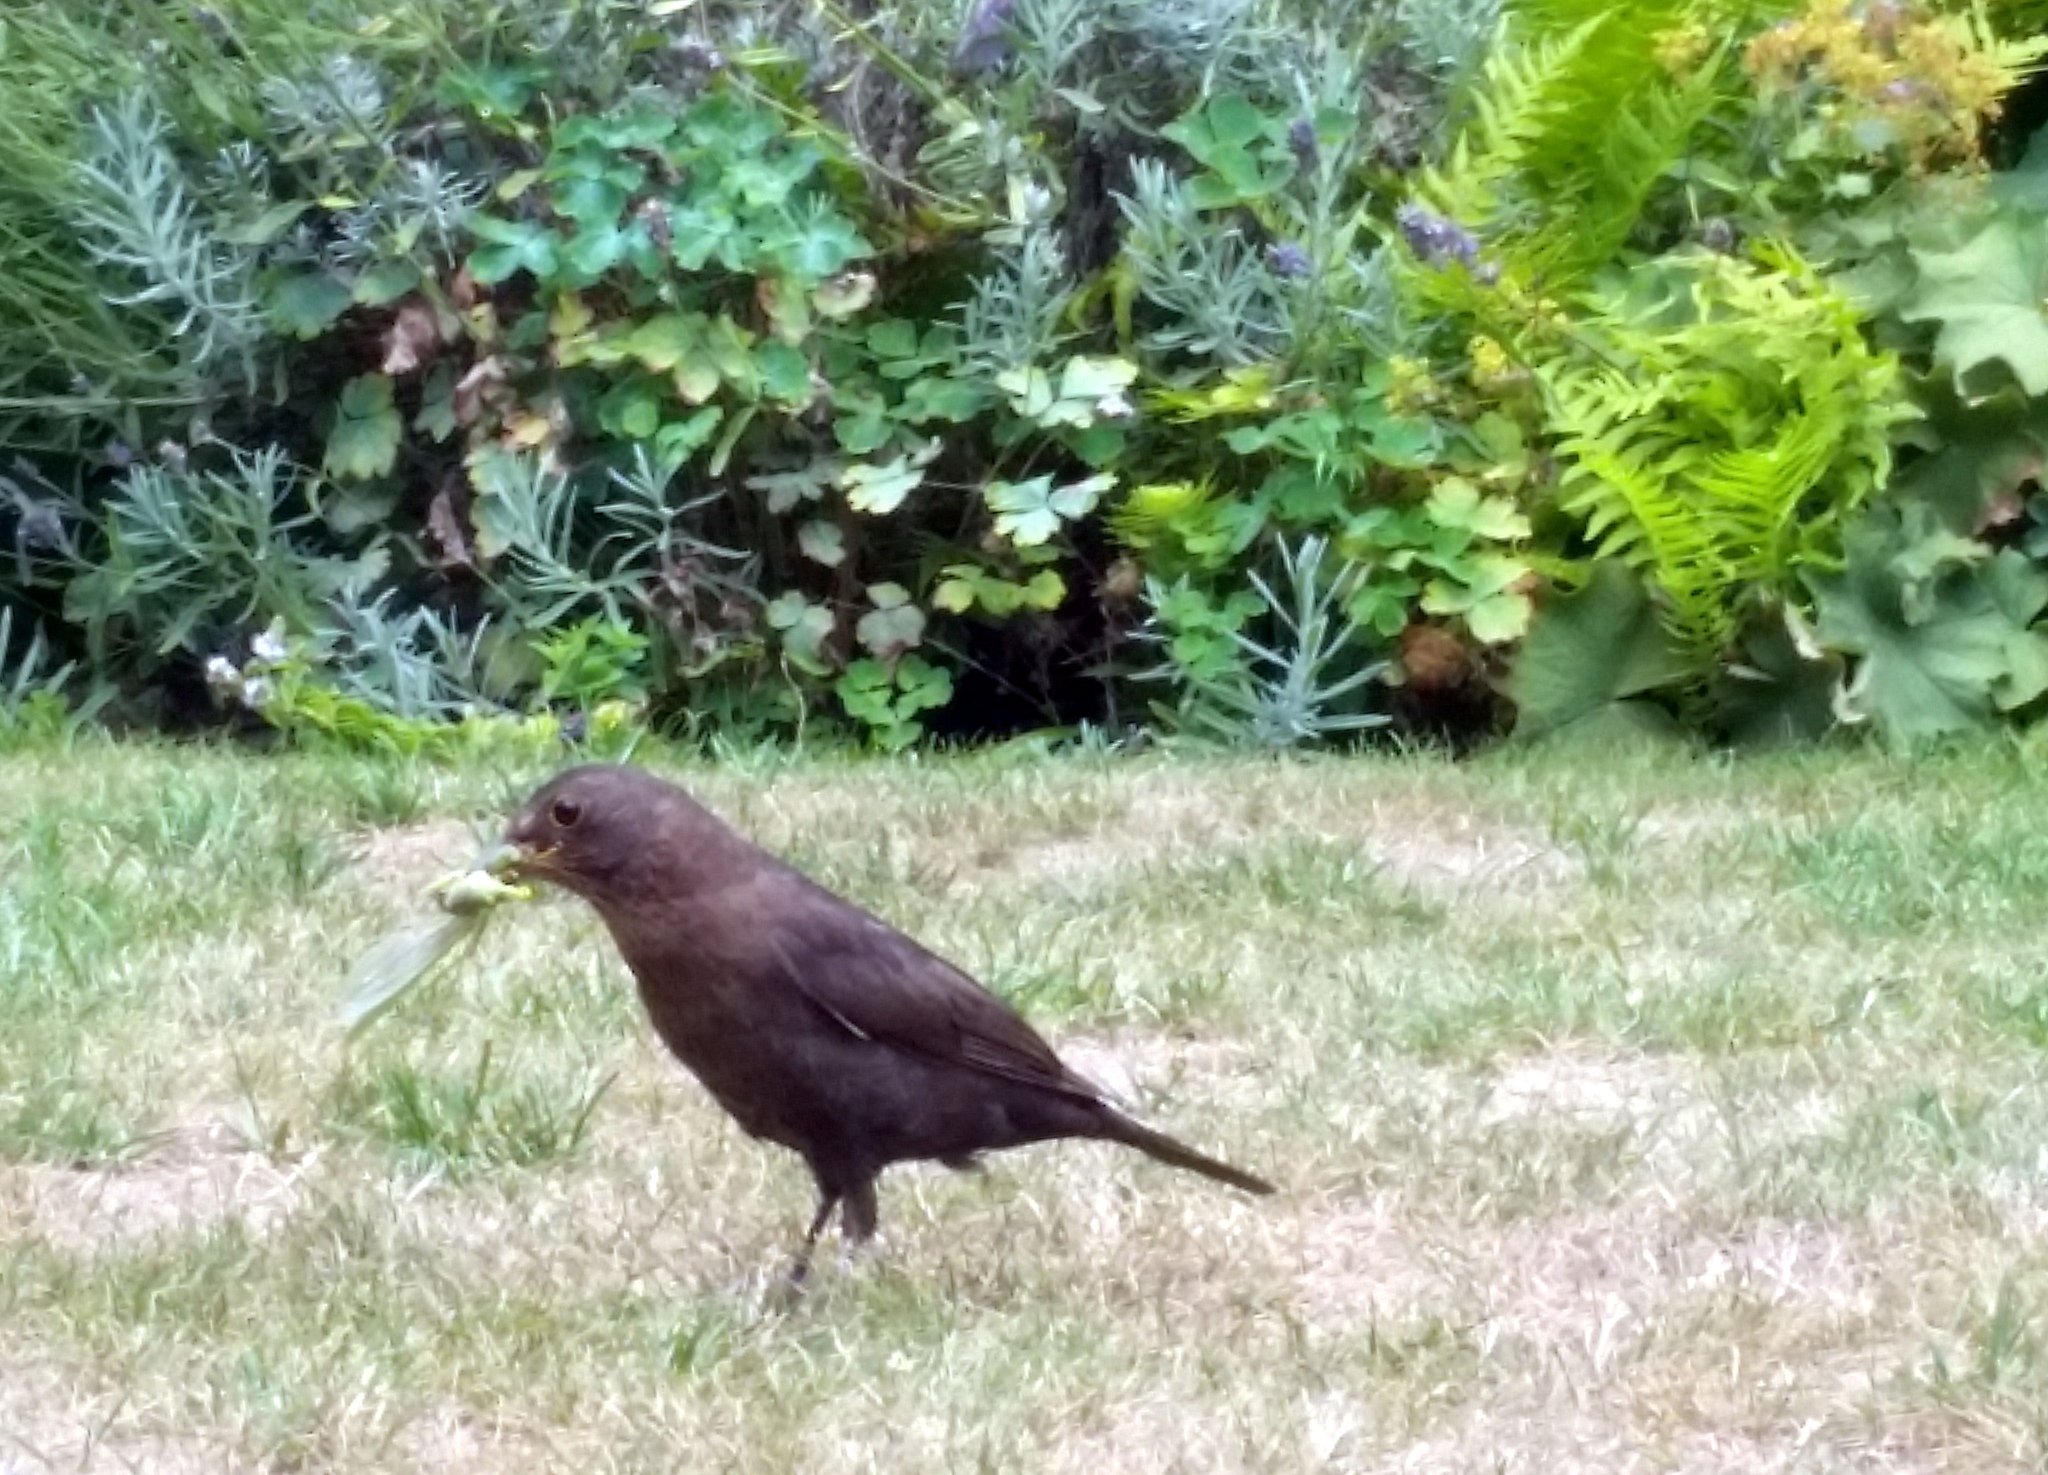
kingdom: Animalia
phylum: Chordata
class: Aves
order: Passeriformes
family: Turdidae
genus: Turdus
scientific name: Turdus merula
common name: Common blackbird
